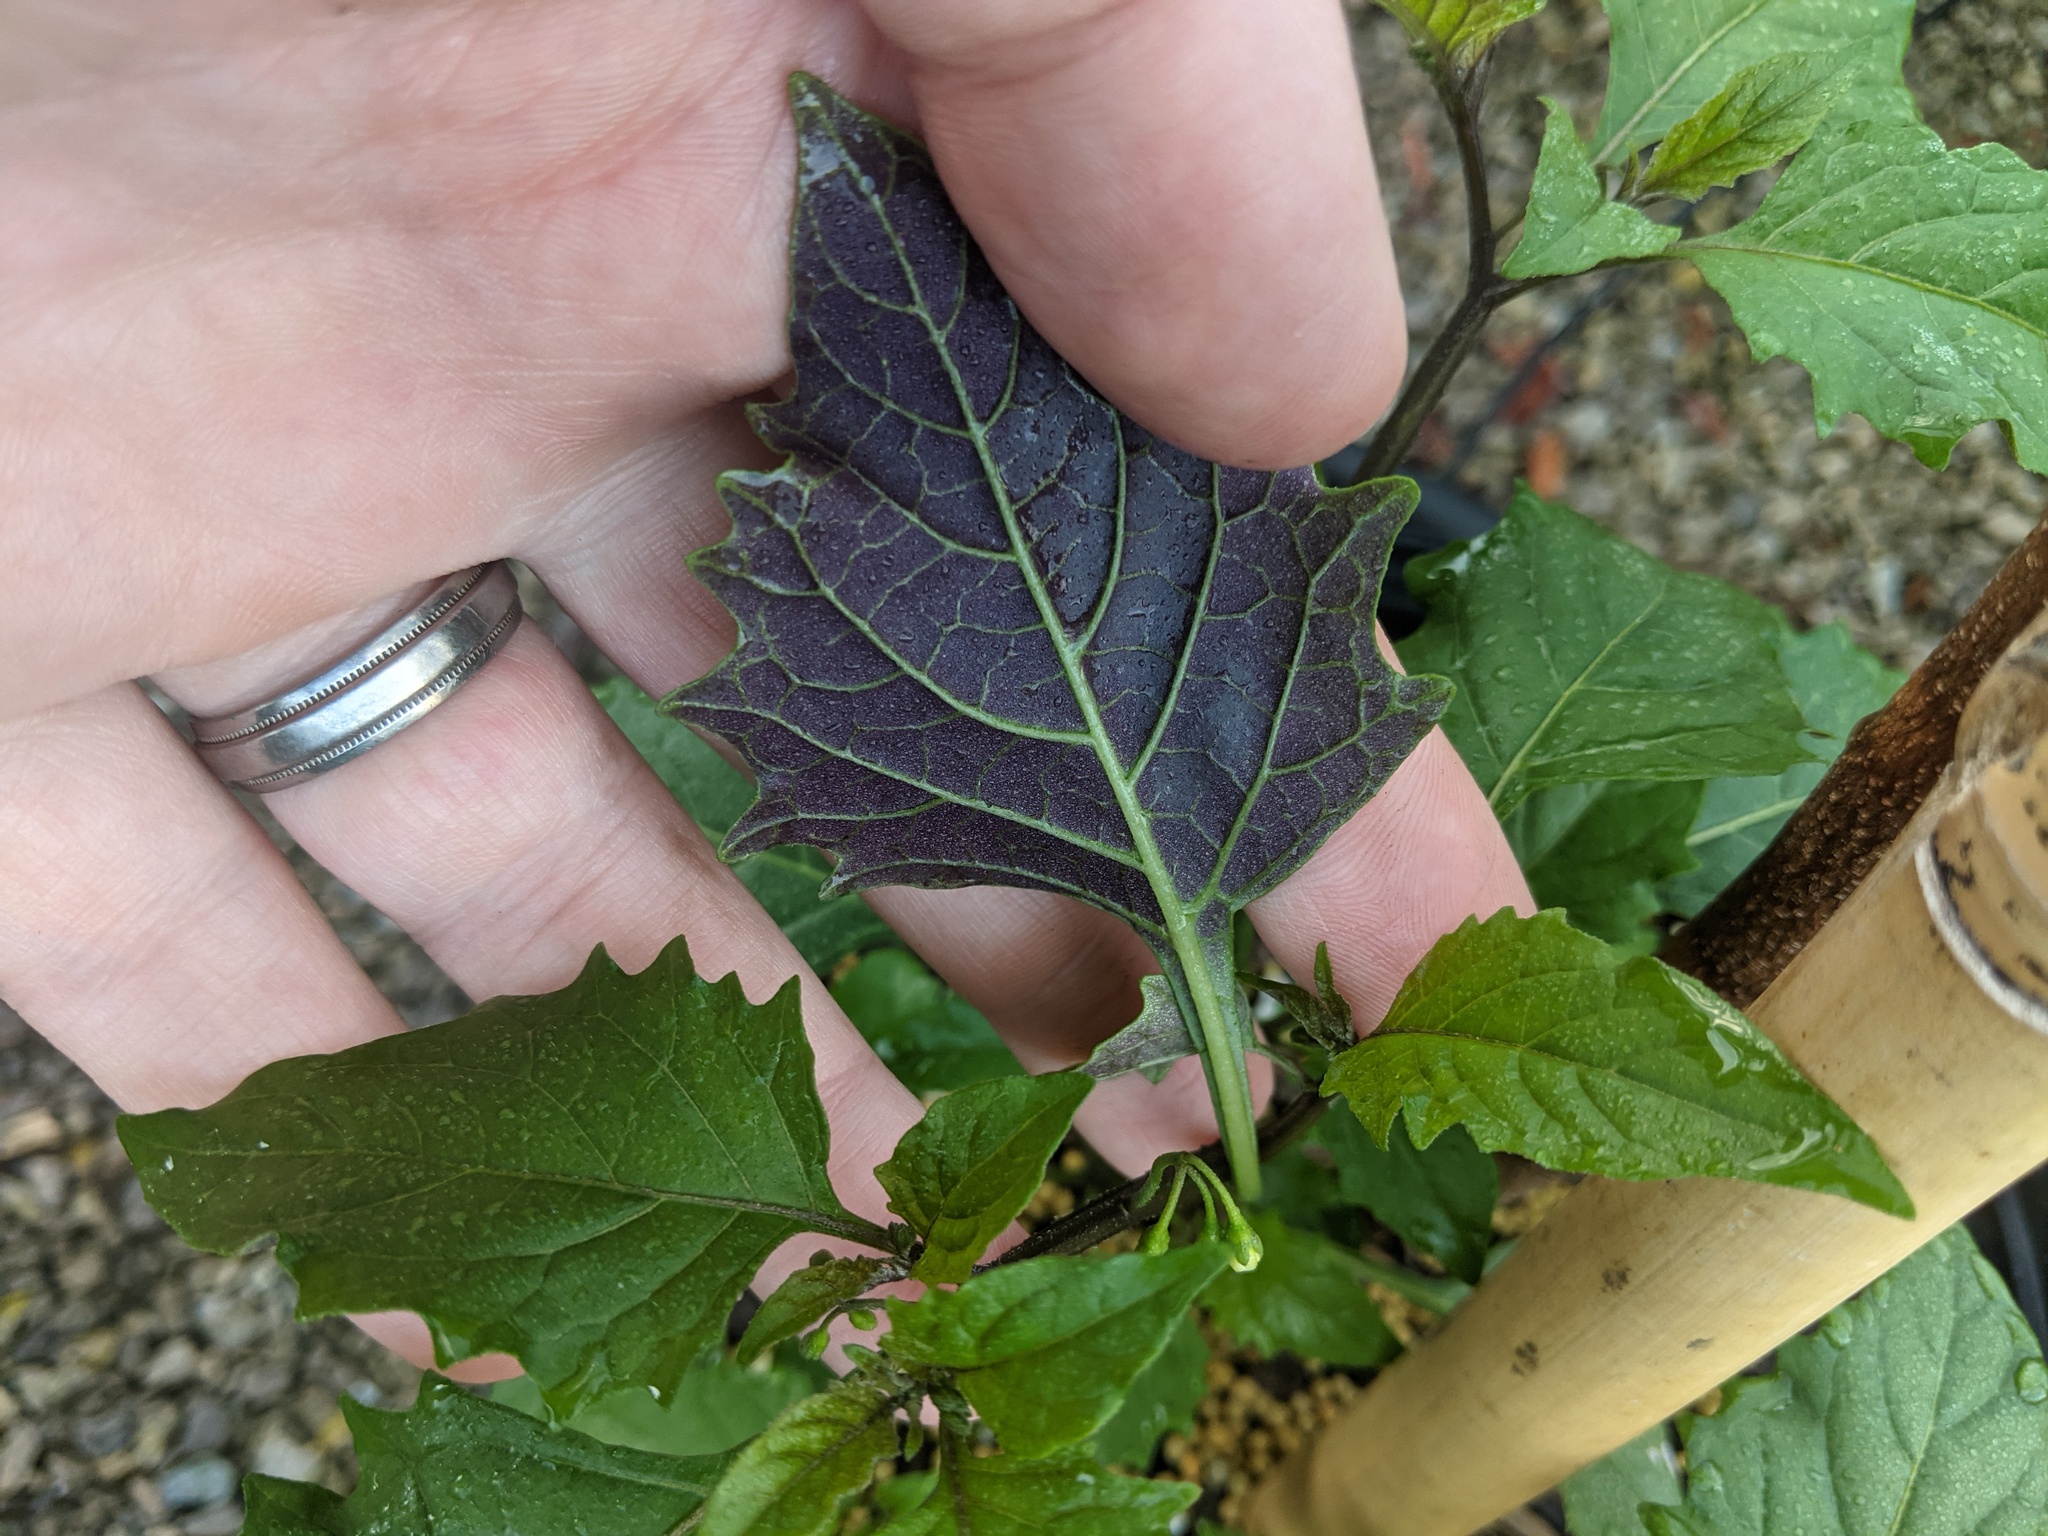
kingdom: Plantae
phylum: Tracheophyta
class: Magnoliopsida
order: Solanales
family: Solanaceae
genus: Solanum
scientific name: Solanum emulans
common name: Eastern black nightshade
